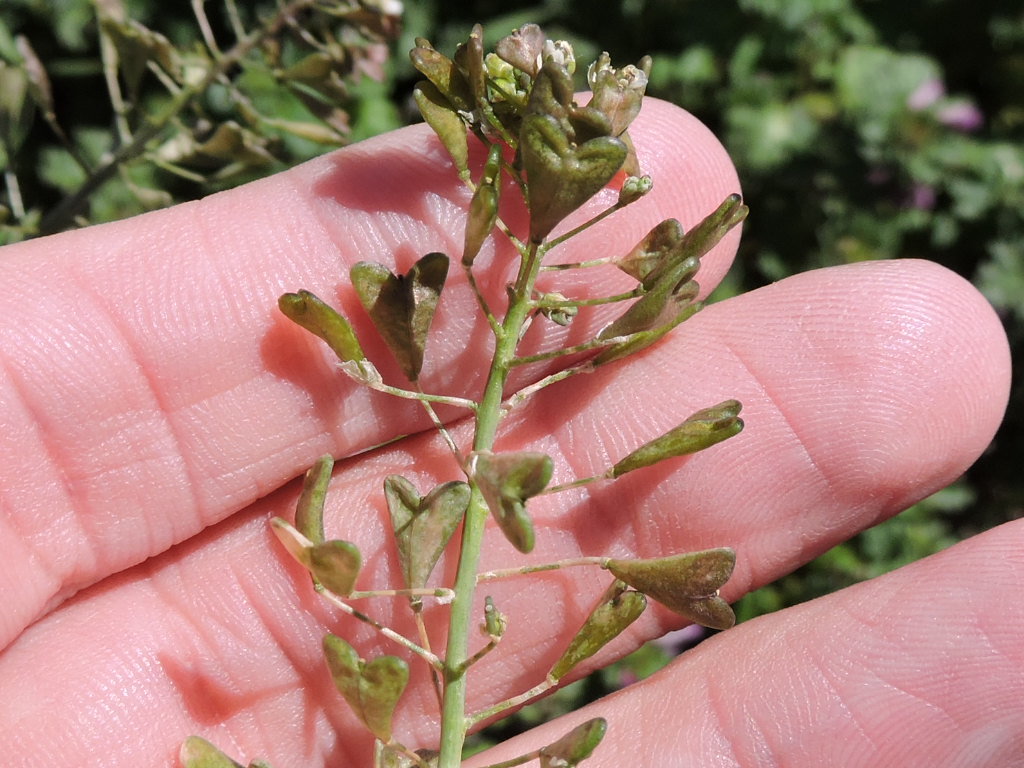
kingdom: Plantae
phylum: Tracheophyta
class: Magnoliopsida
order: Brassicales
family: Brassicaceae
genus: Capsella
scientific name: Capsella bursa-pastoris
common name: Shepherd's purse
